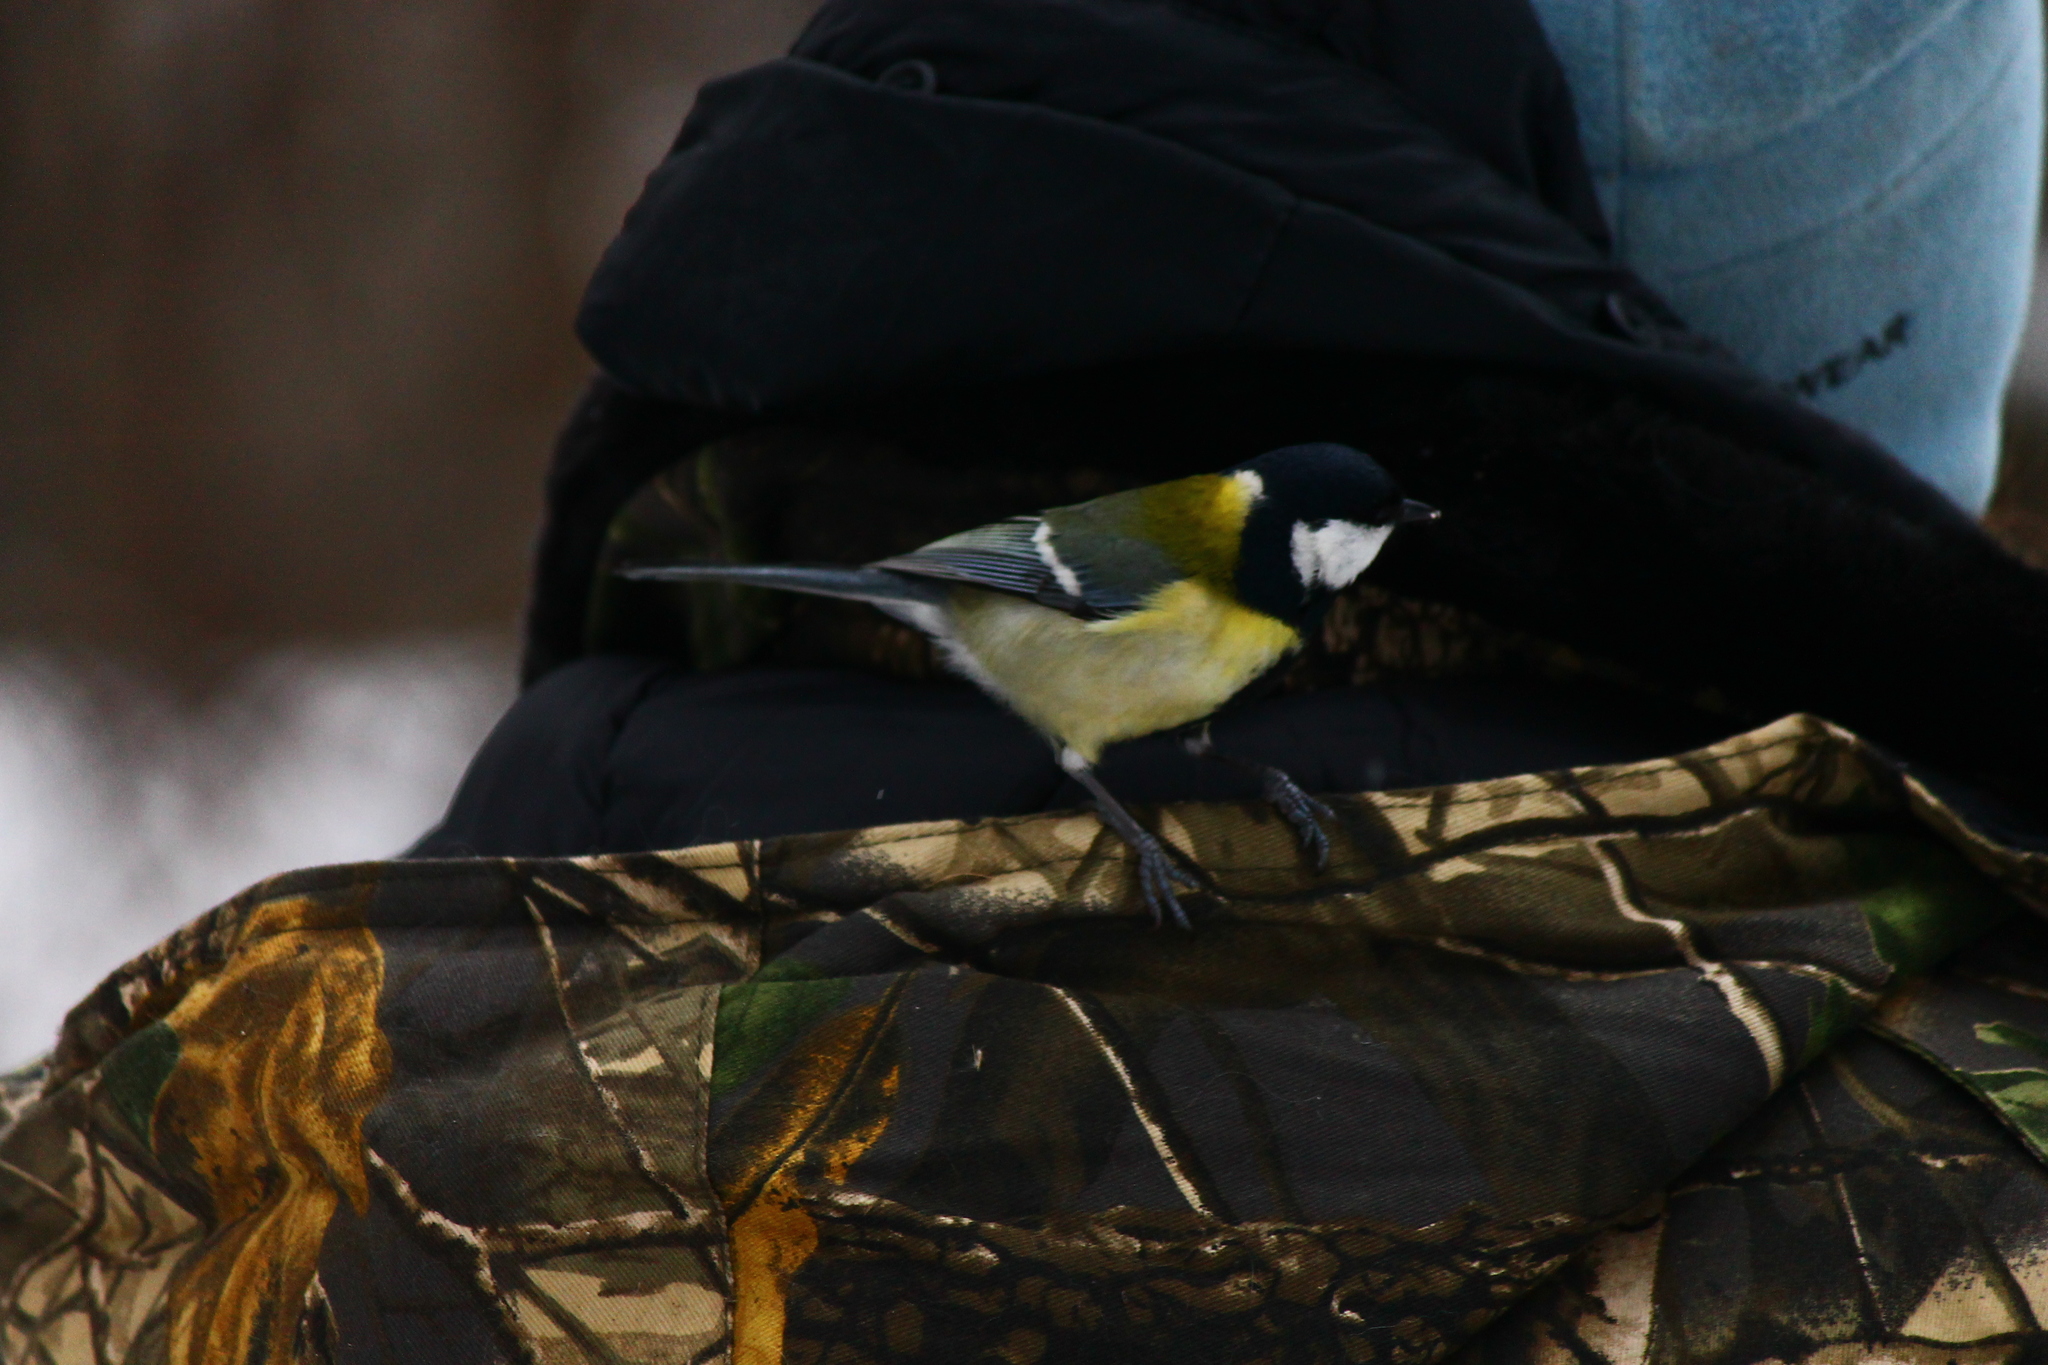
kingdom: Animalia
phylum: Chordata
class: Aves
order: Passeriformes
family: Paridae
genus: Parus
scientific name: Parus major
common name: Great tit
